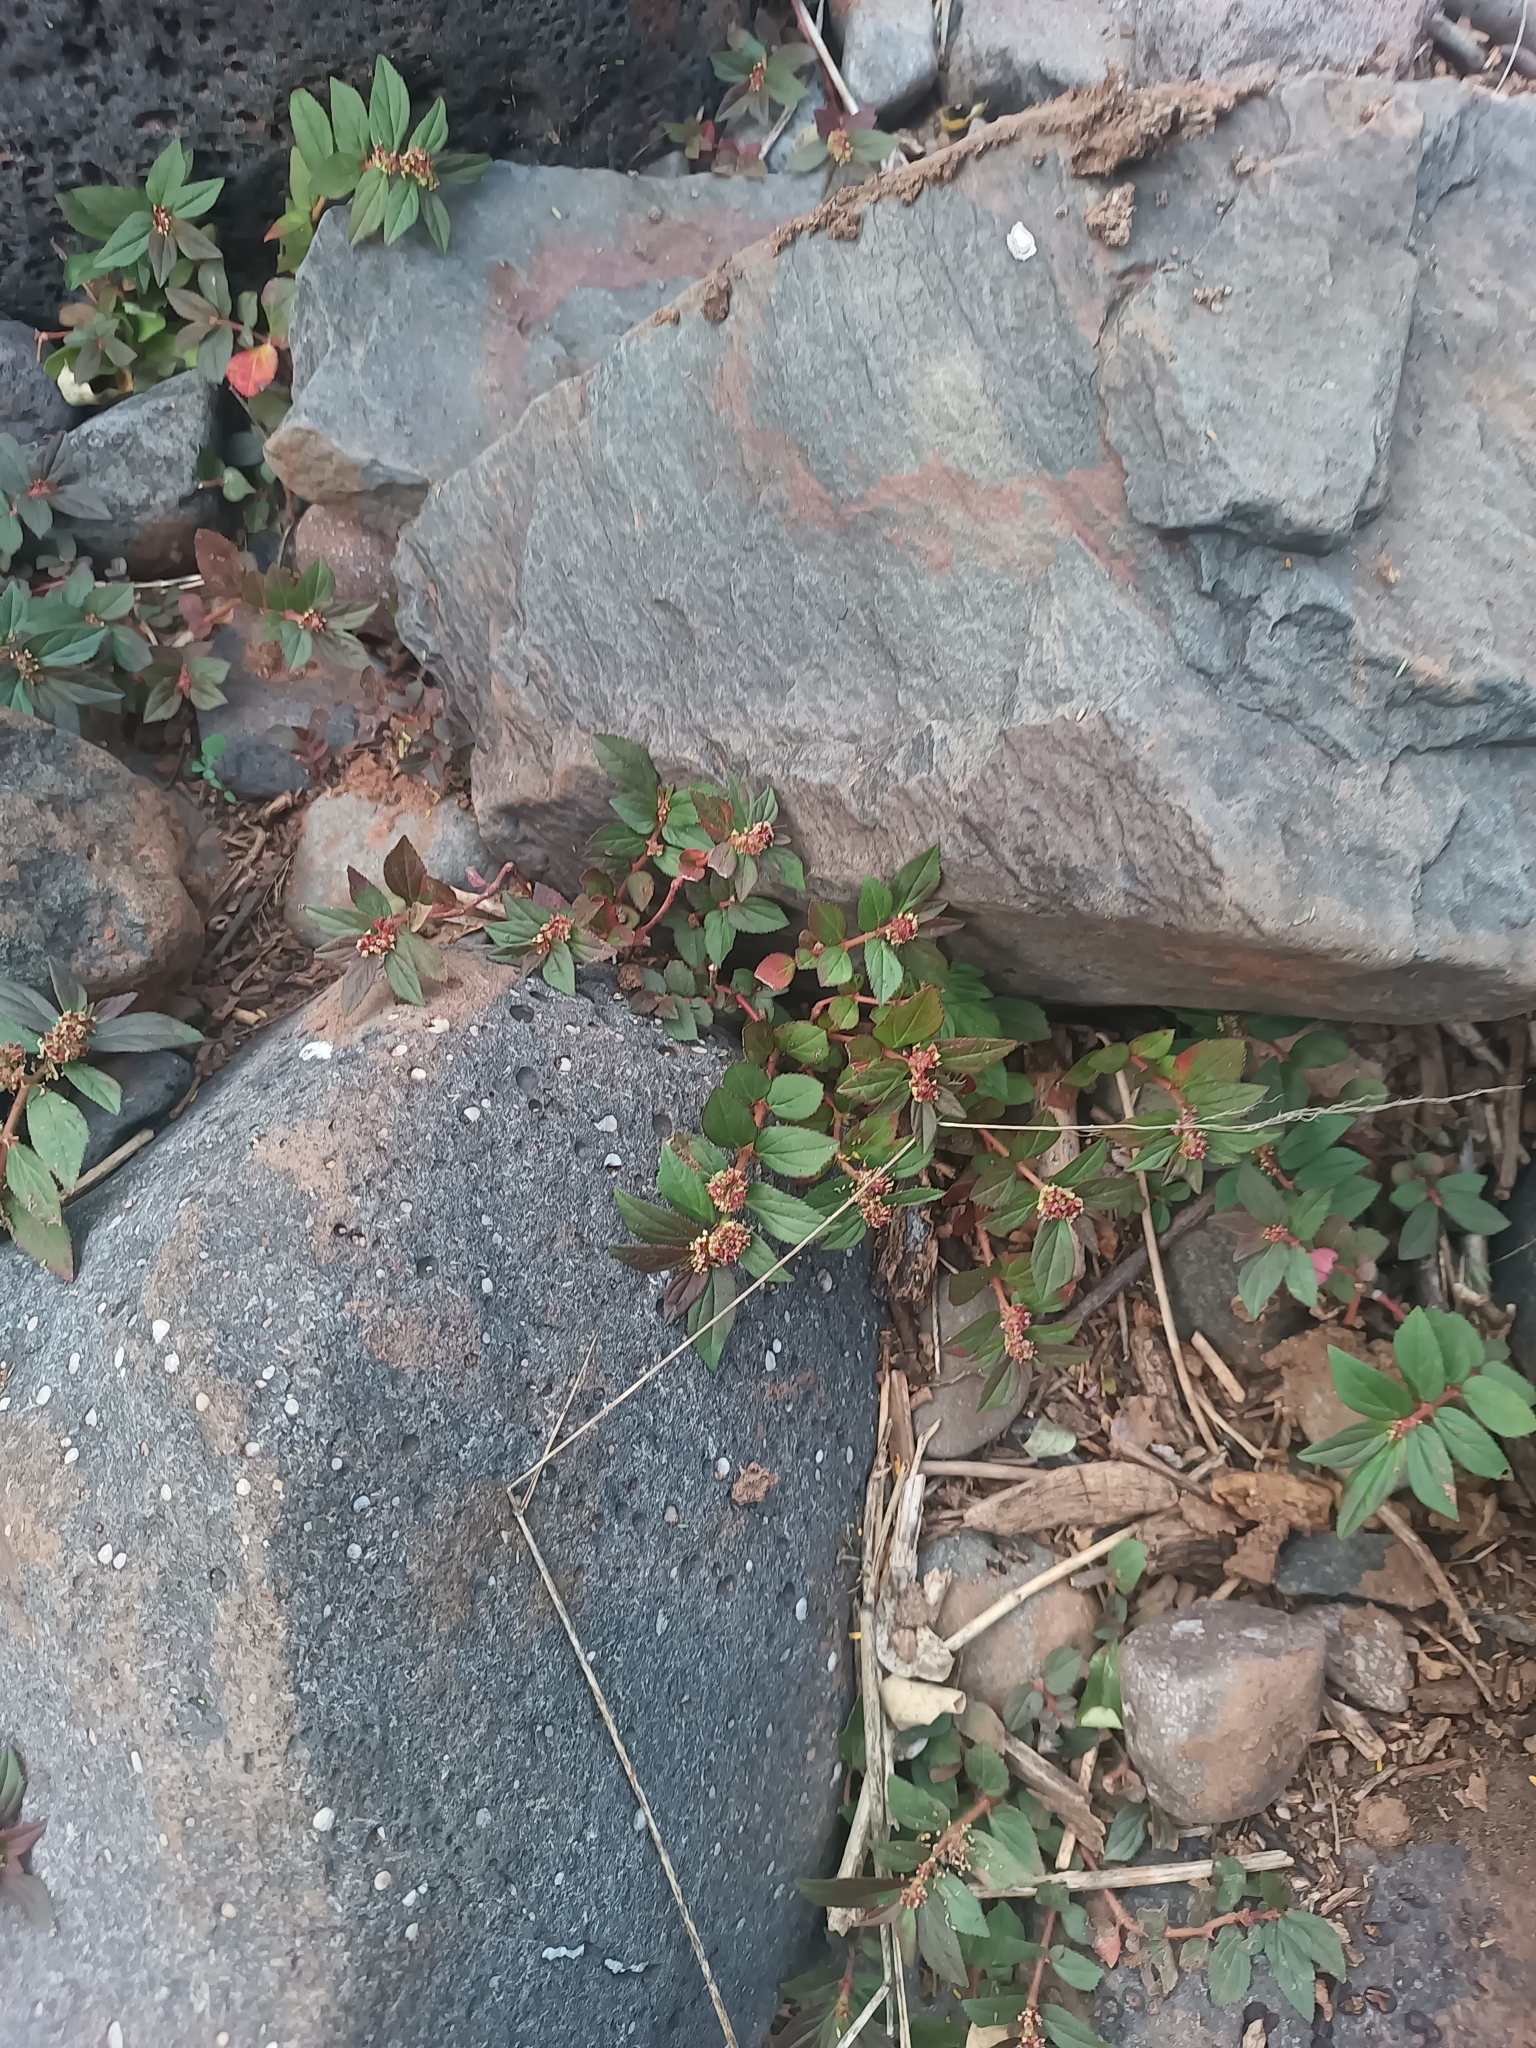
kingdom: Plantae
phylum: Tracheophyta
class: Magnoliopsida
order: Malpighiales
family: Euphorbiaceae
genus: Euphorbia
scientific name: Euphorbia hirta
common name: Pillpod sandmat
